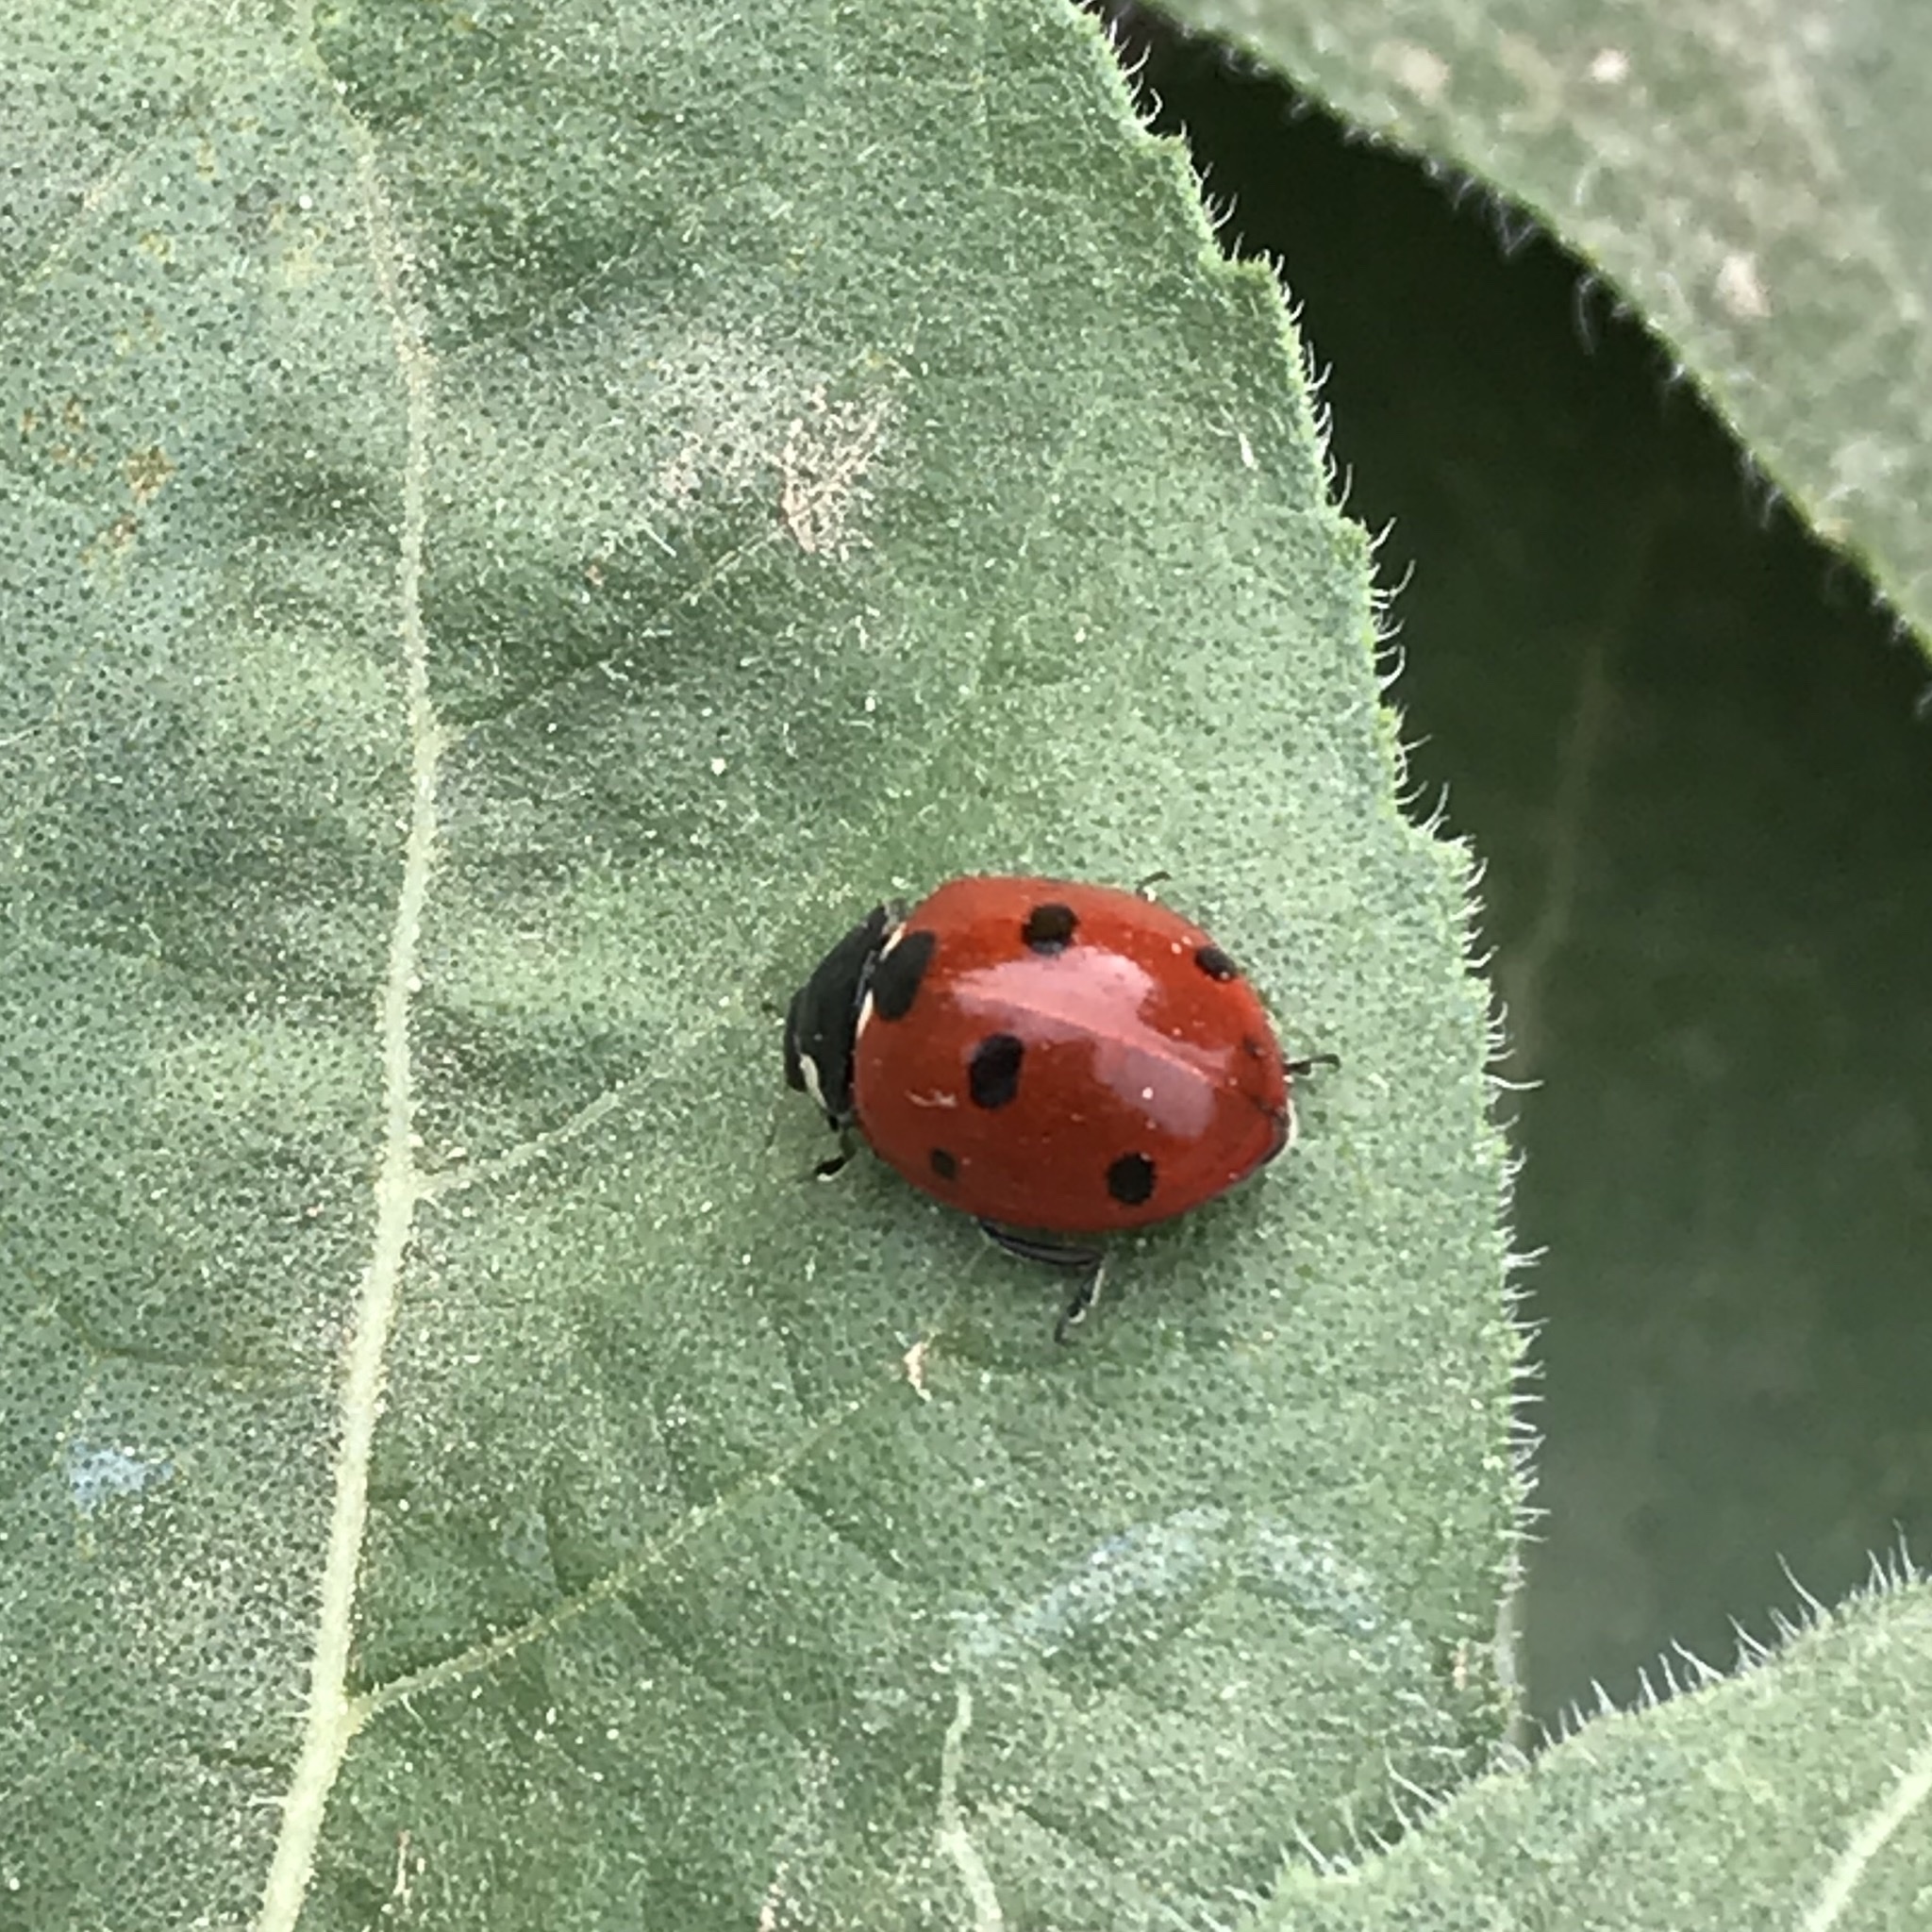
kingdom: Animalia
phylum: Arthropoda
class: Insecta
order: Coleoptera
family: Coccinellidae
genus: Coccinella
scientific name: Coccinella septempunctata
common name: Sevenspotted lady beetle
